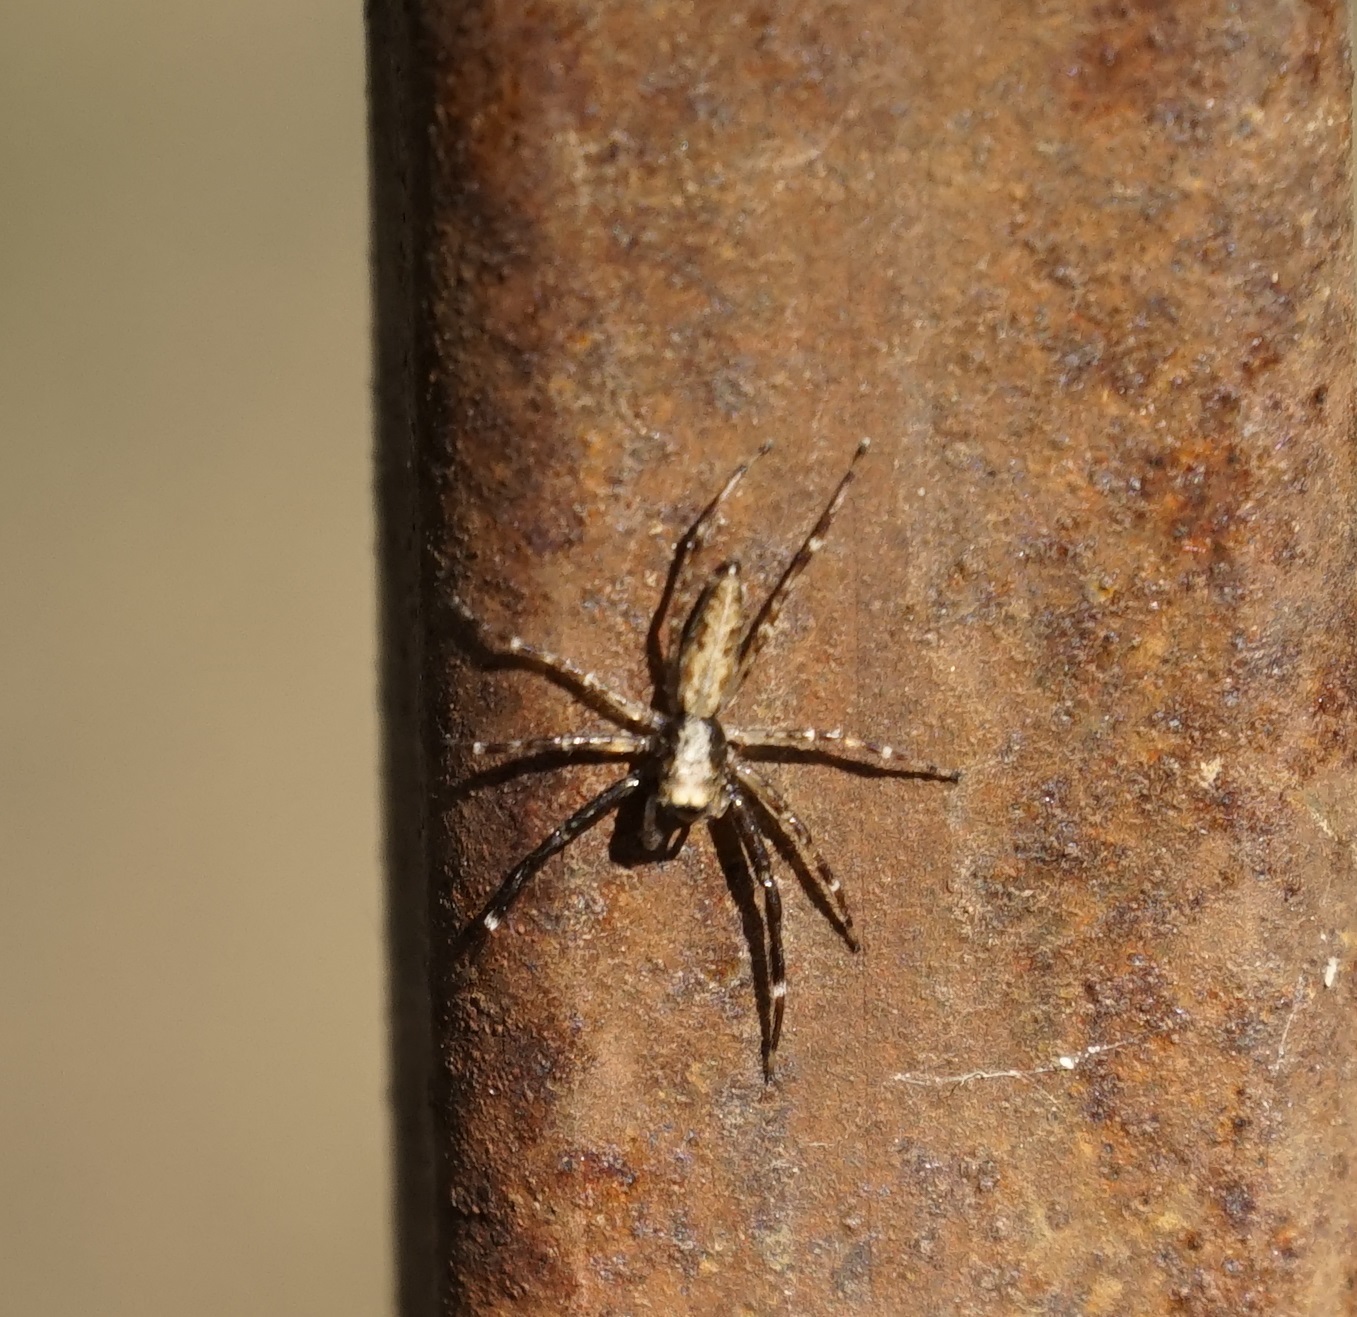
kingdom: Animalia
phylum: Arthropoda
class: Arachnida
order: Araneae
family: Salticidae
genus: Helpis
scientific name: Helpis minitabunda
